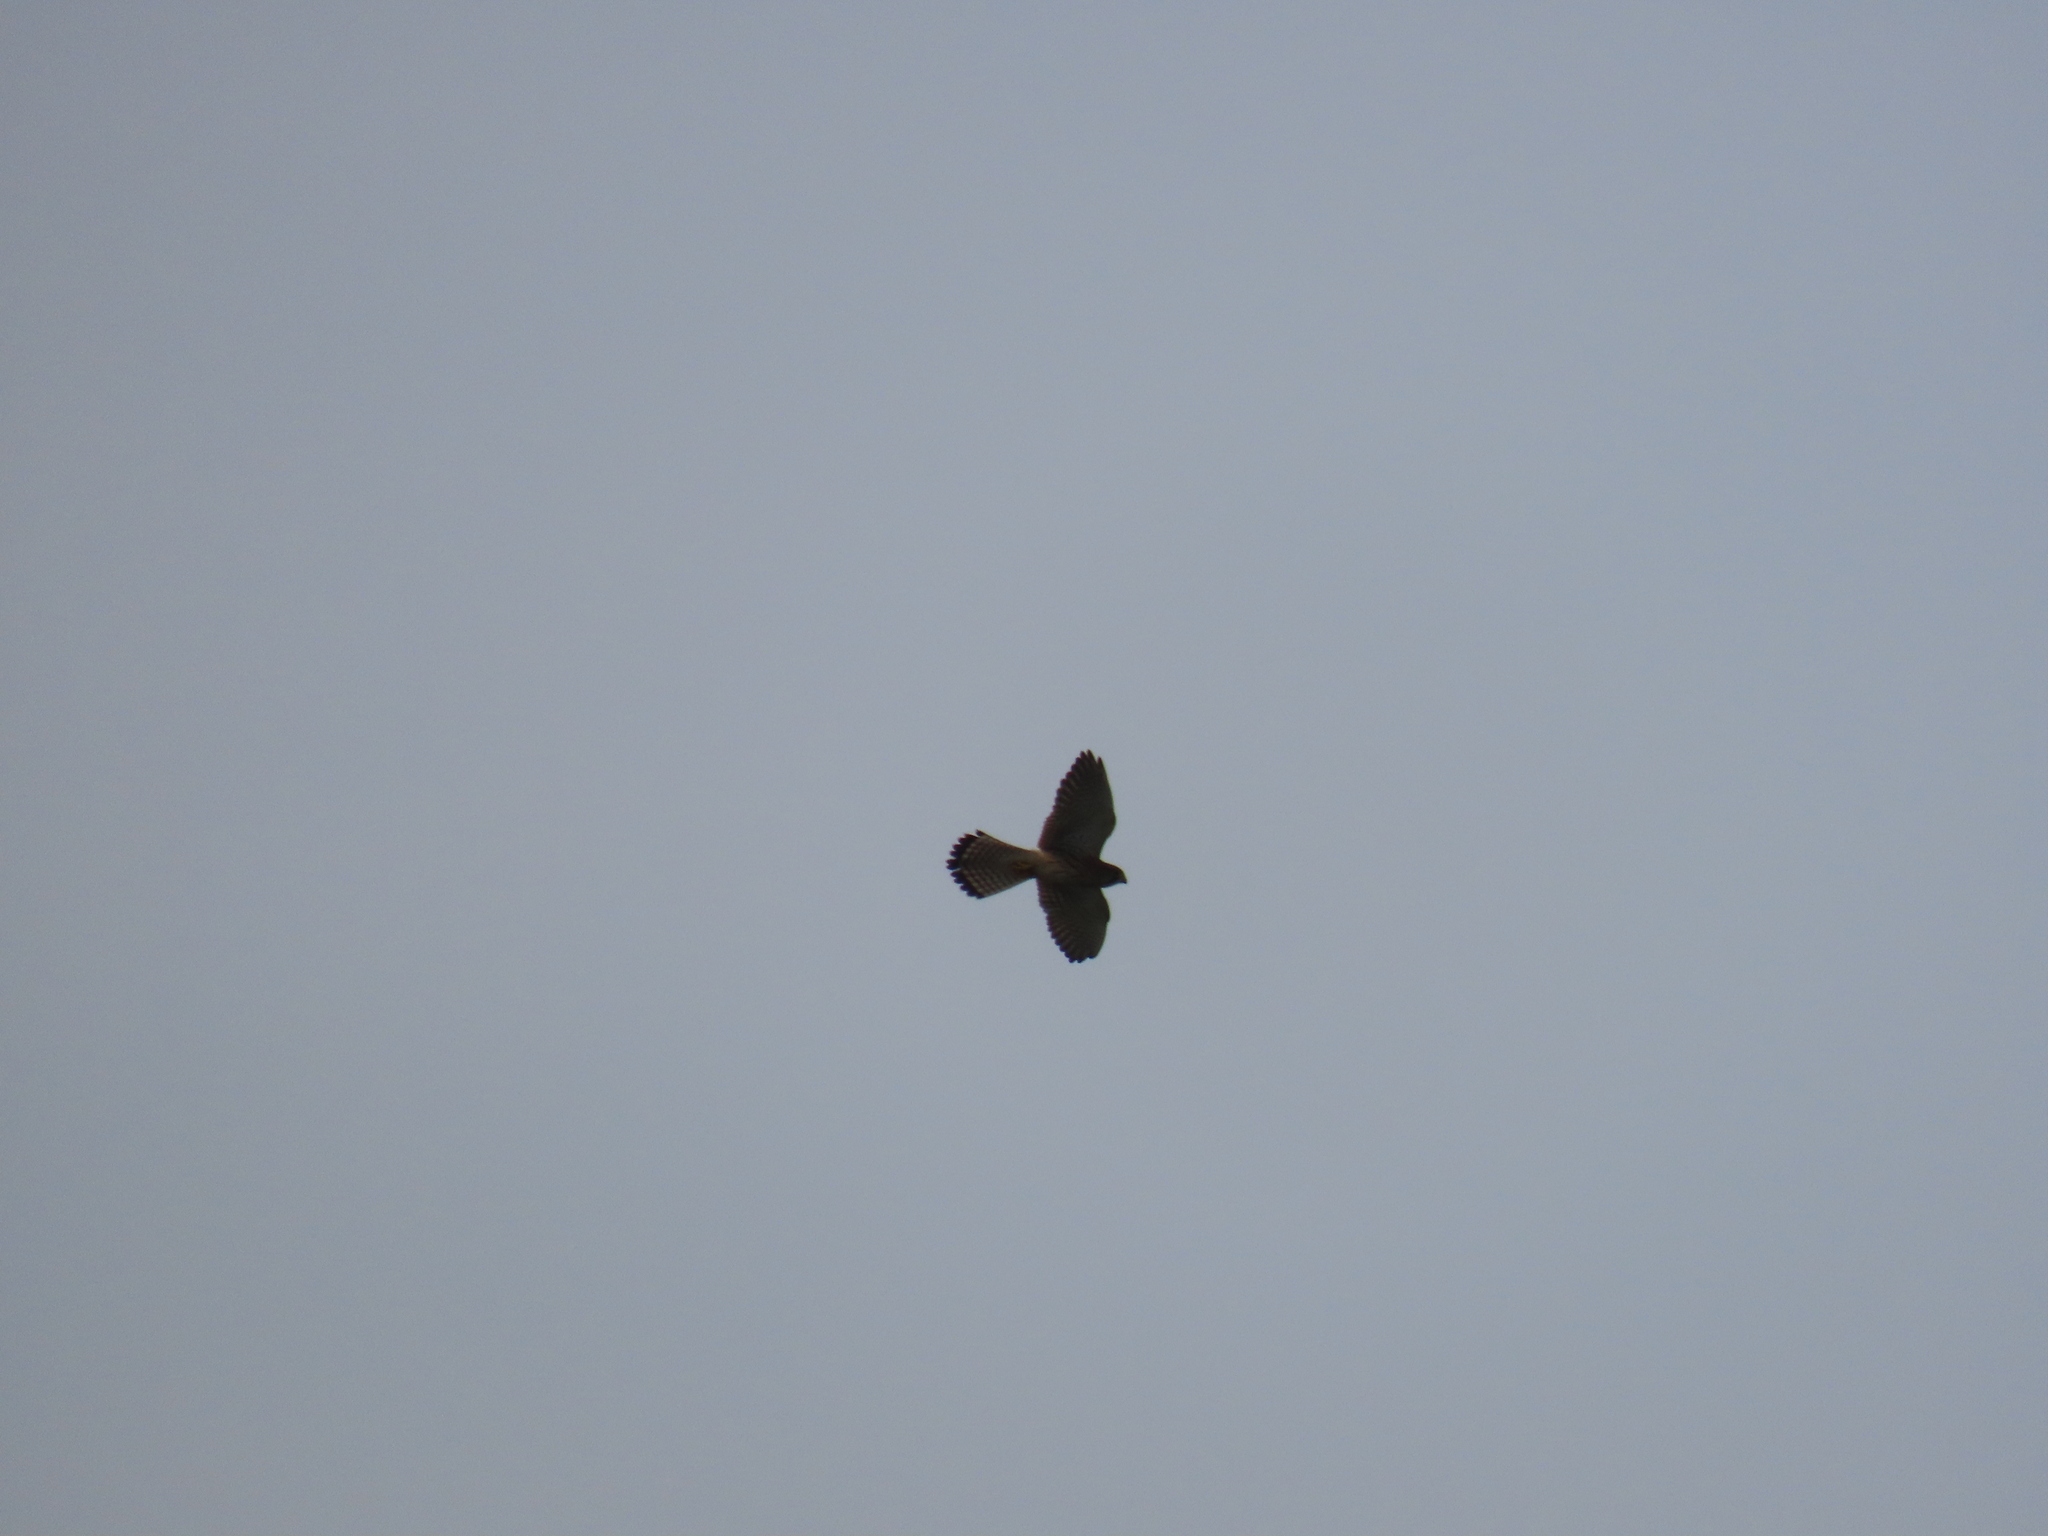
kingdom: Animalia
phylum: Chordata
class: Aves
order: Falconiformes
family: Falconidae
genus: Falco
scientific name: Falco tinnunculus
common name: Common kestrel
